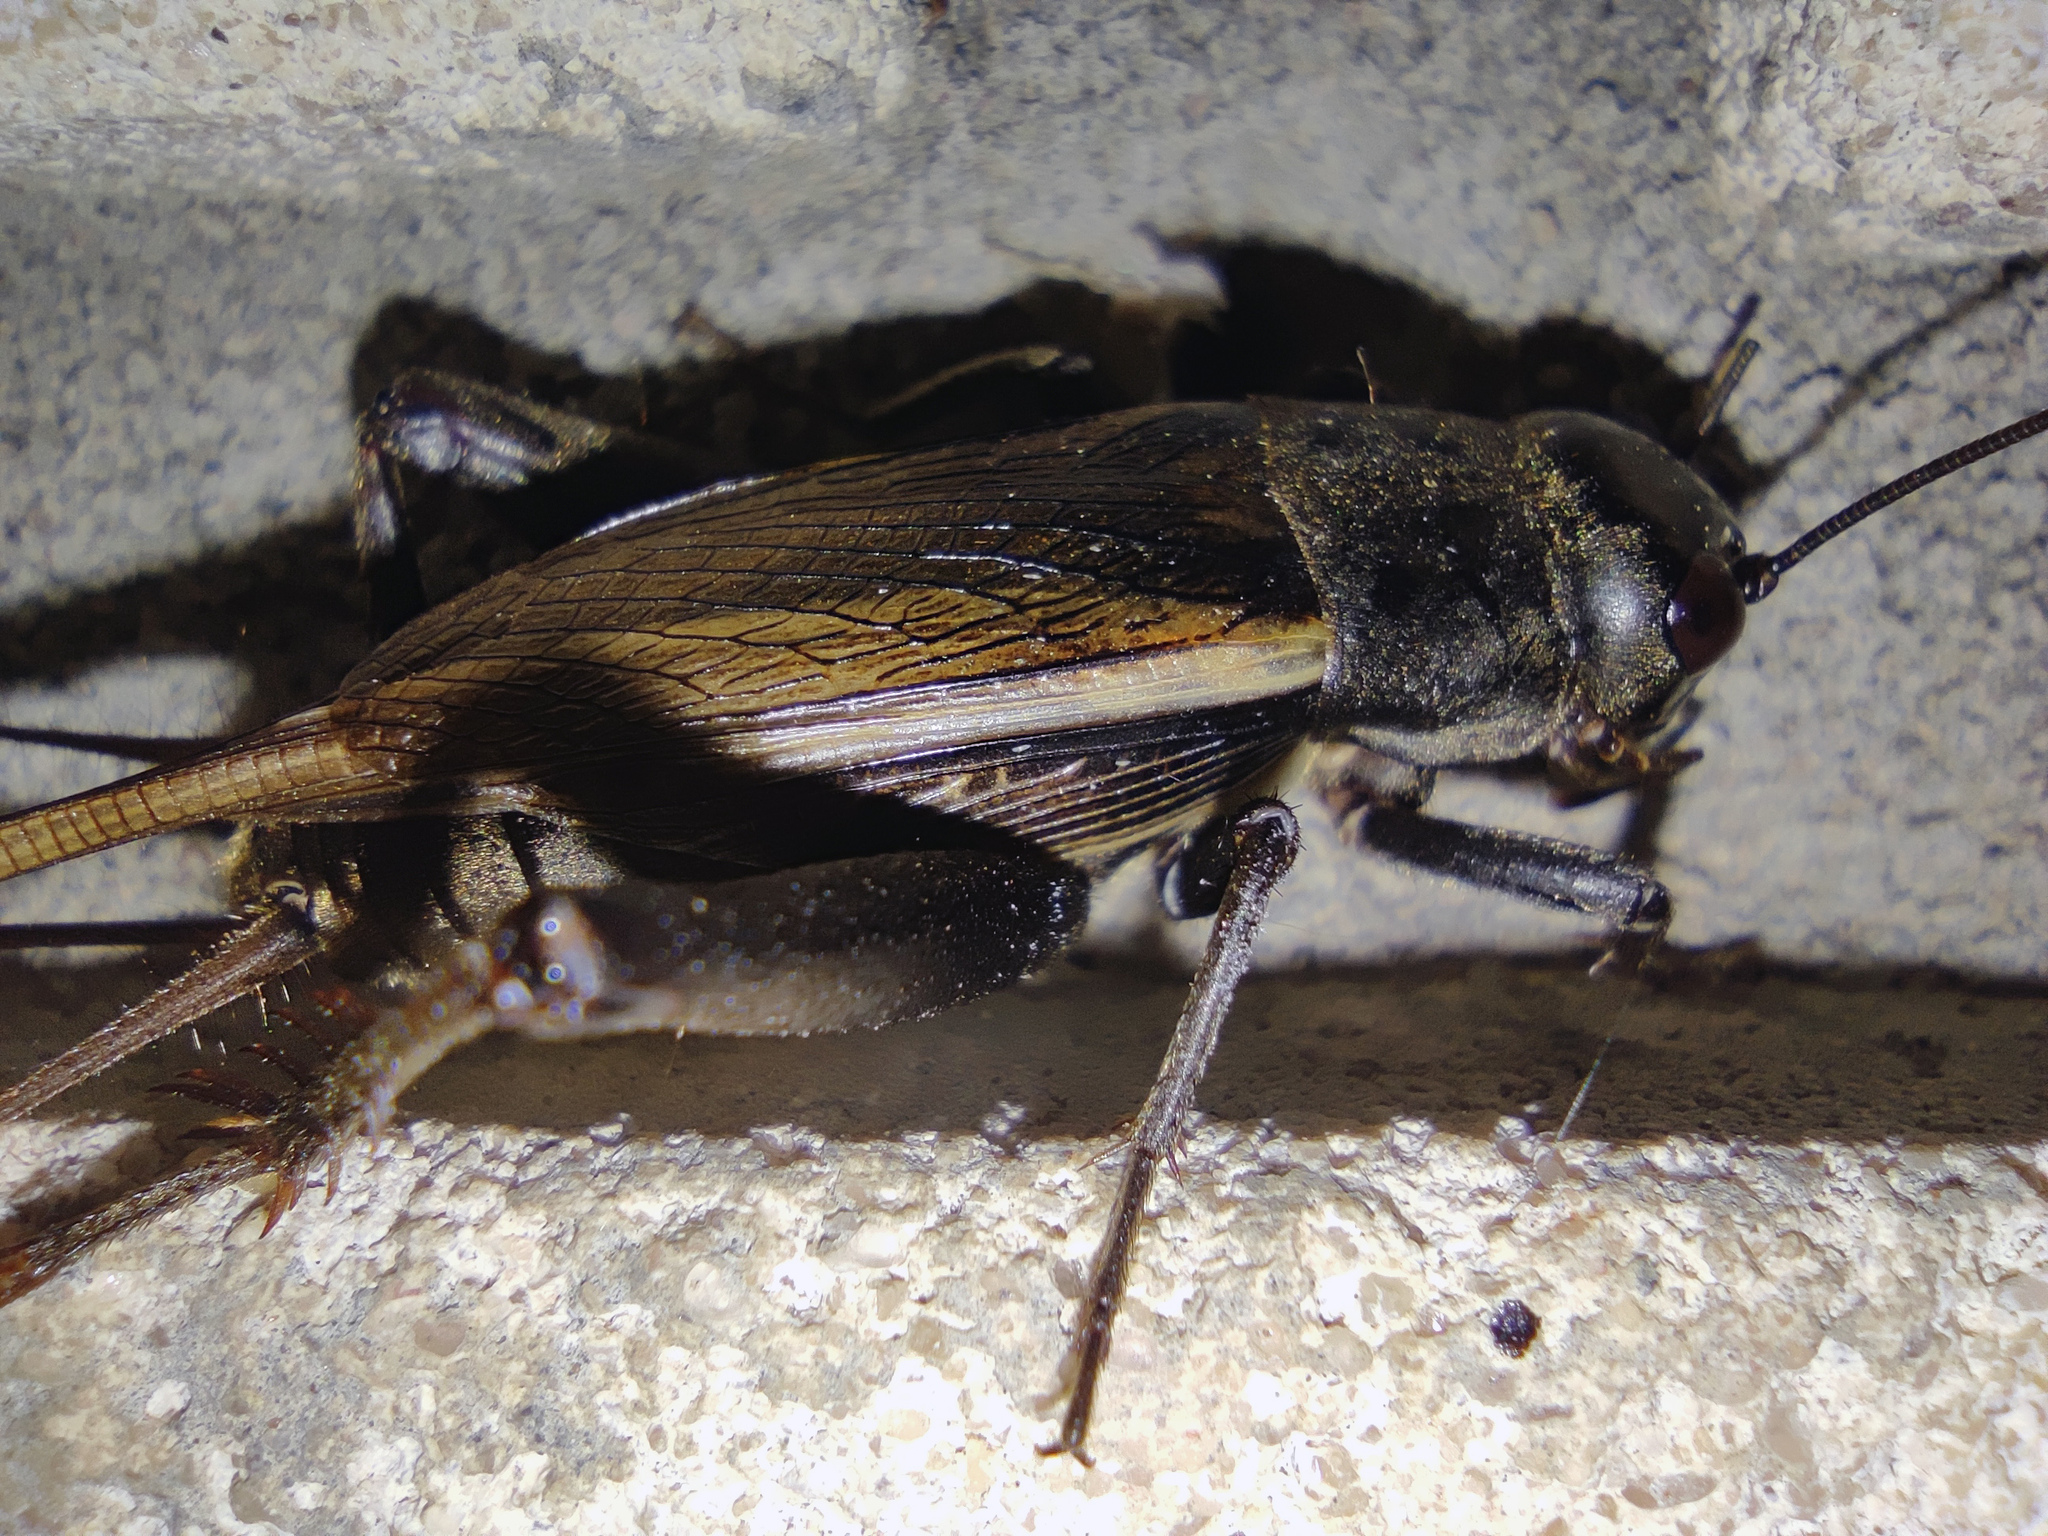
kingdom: Animalia
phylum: Arthropoda
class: Insecta
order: Orthoptera
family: Gryllidae
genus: Melanogryllus
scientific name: Melanogryllus desertus
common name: Desert cricket
